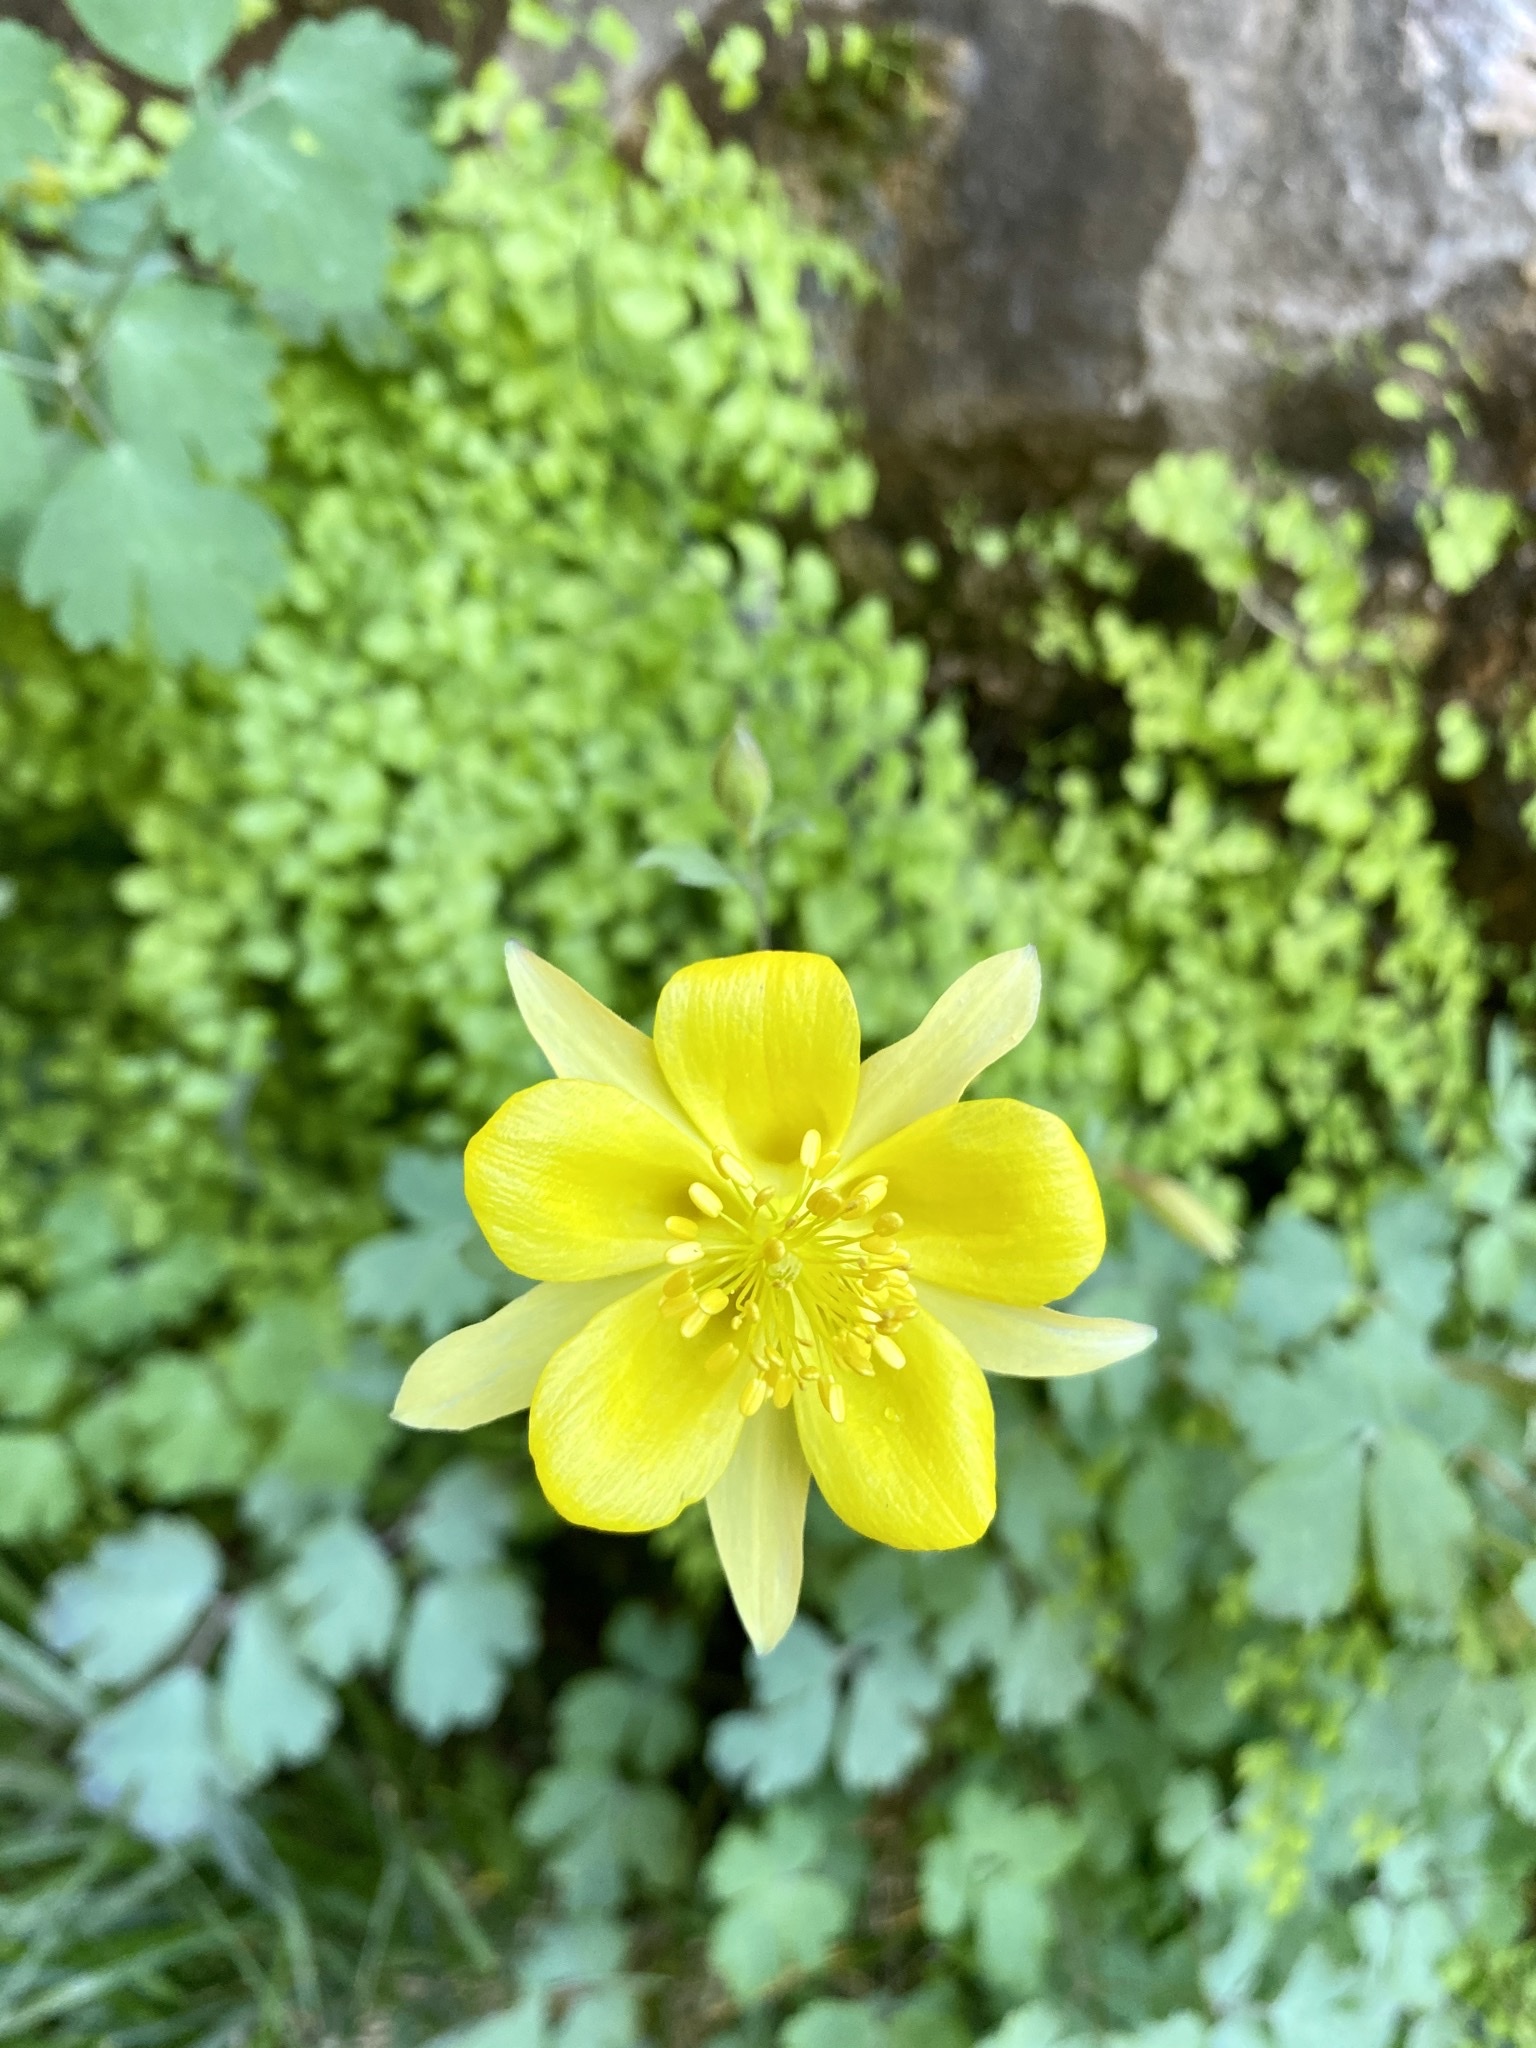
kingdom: Plantae
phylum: Tracheophyta
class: Magnoliopsida
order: Ranunculales
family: Ranunculaceae
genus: Aquilegia
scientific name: Aquilegia chrysantha
